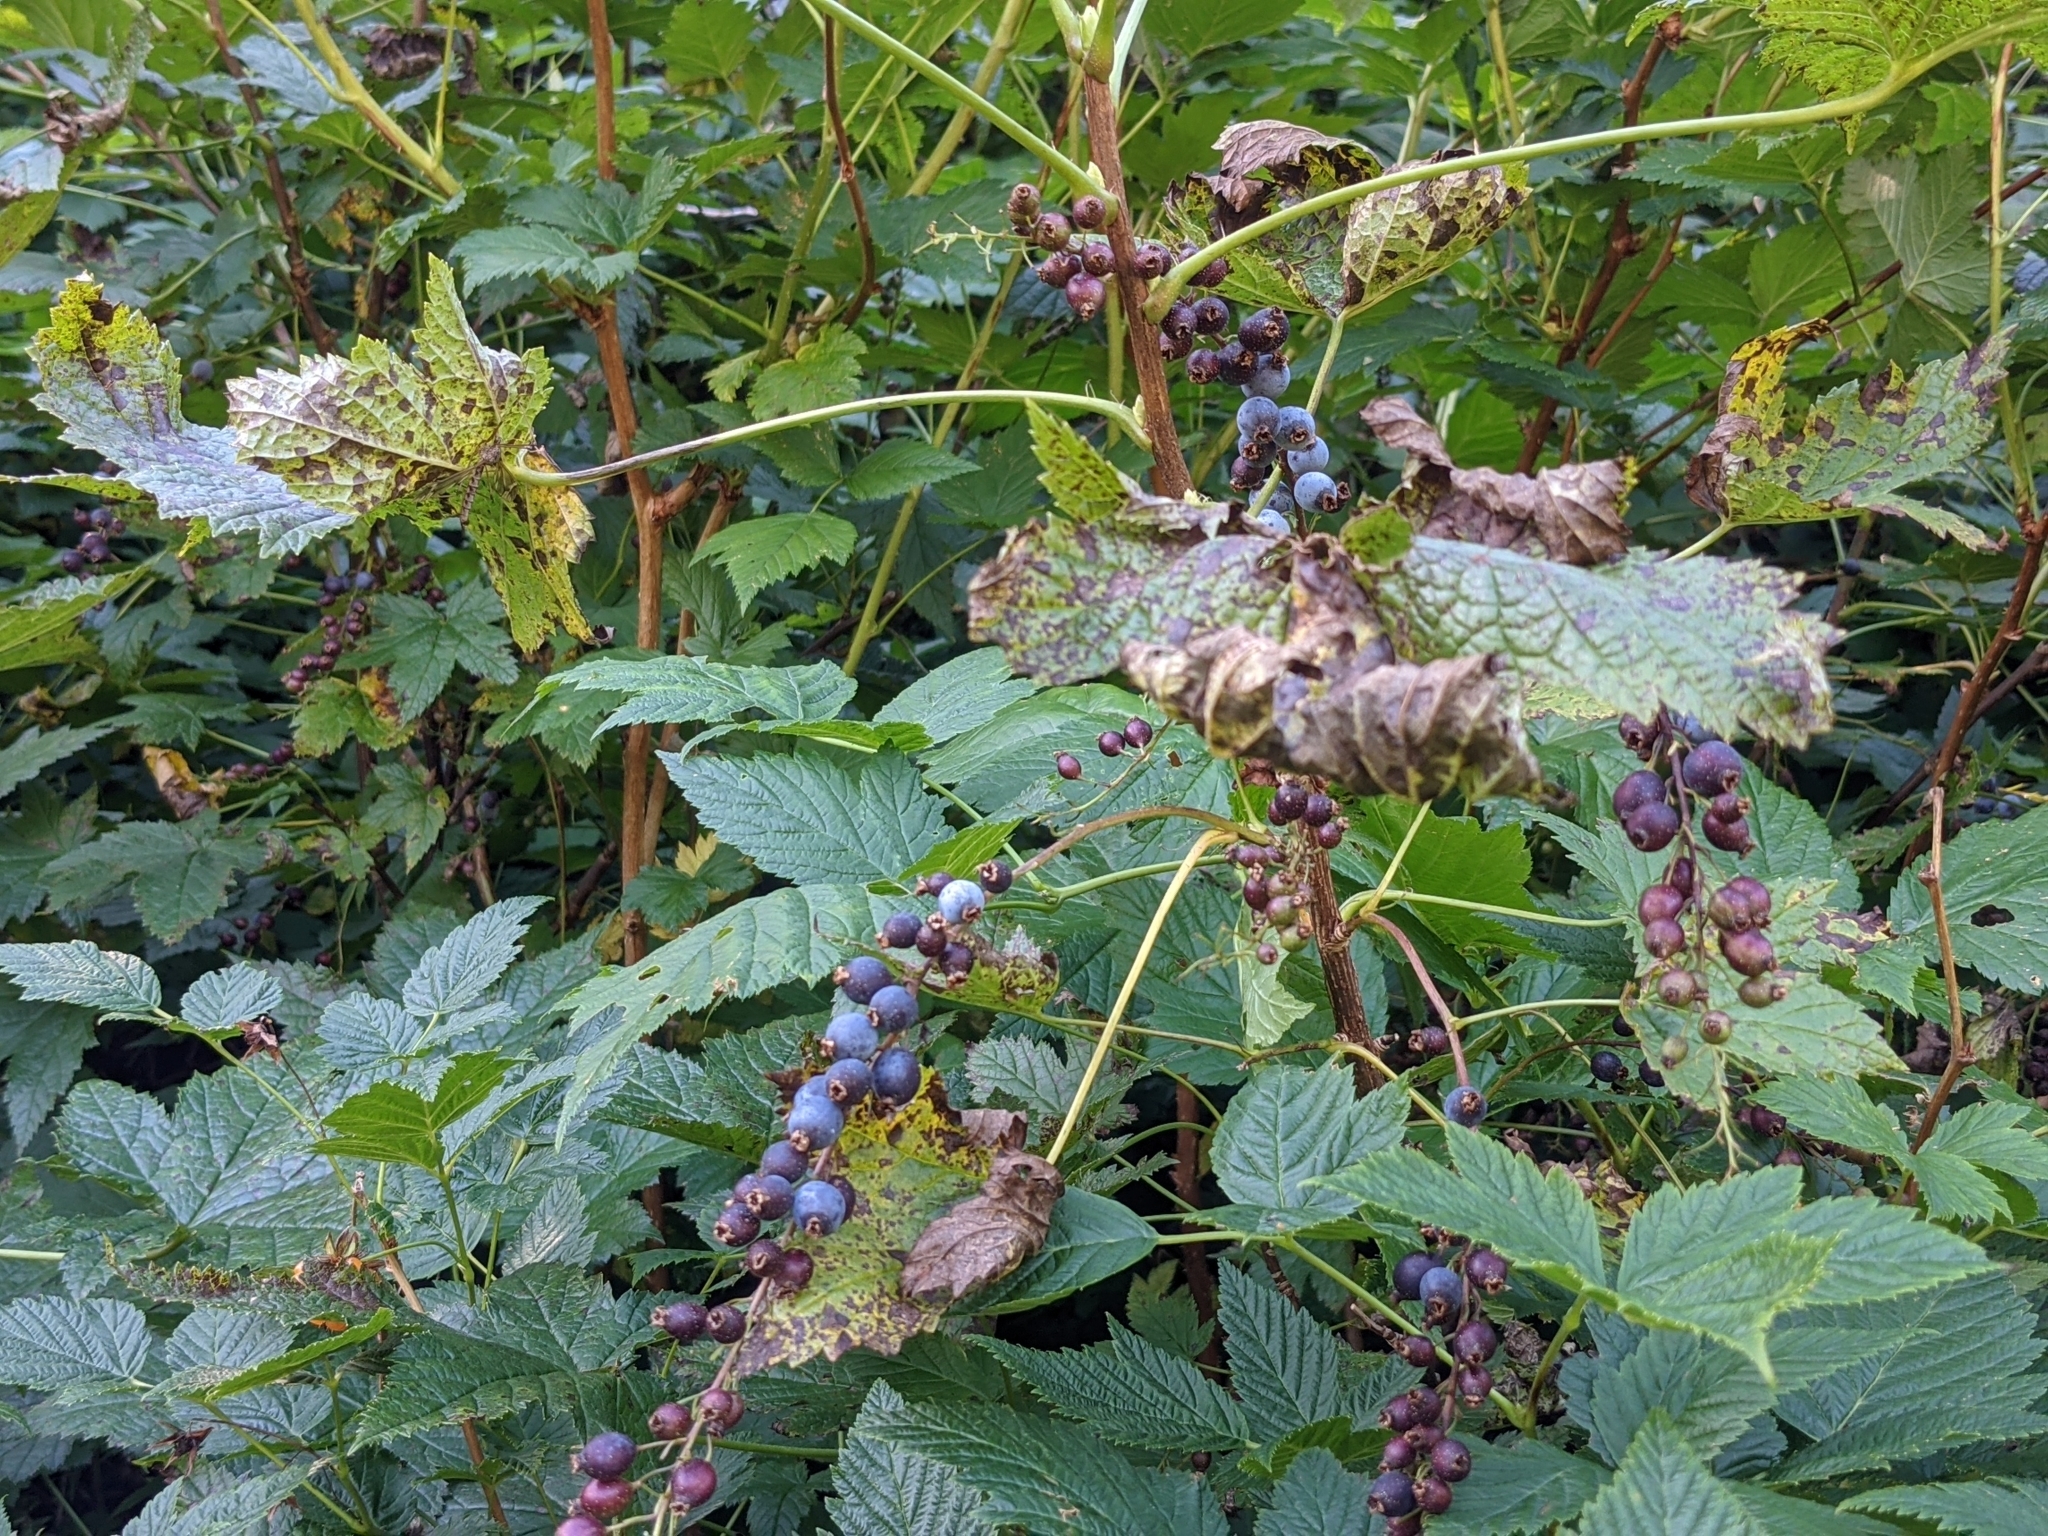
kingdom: Plantae
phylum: Tracheophyta
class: Magnoliopsida
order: Saxifragales
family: Grossulariaceae
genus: Ribes
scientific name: Ribes bracteosum
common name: California black currant
